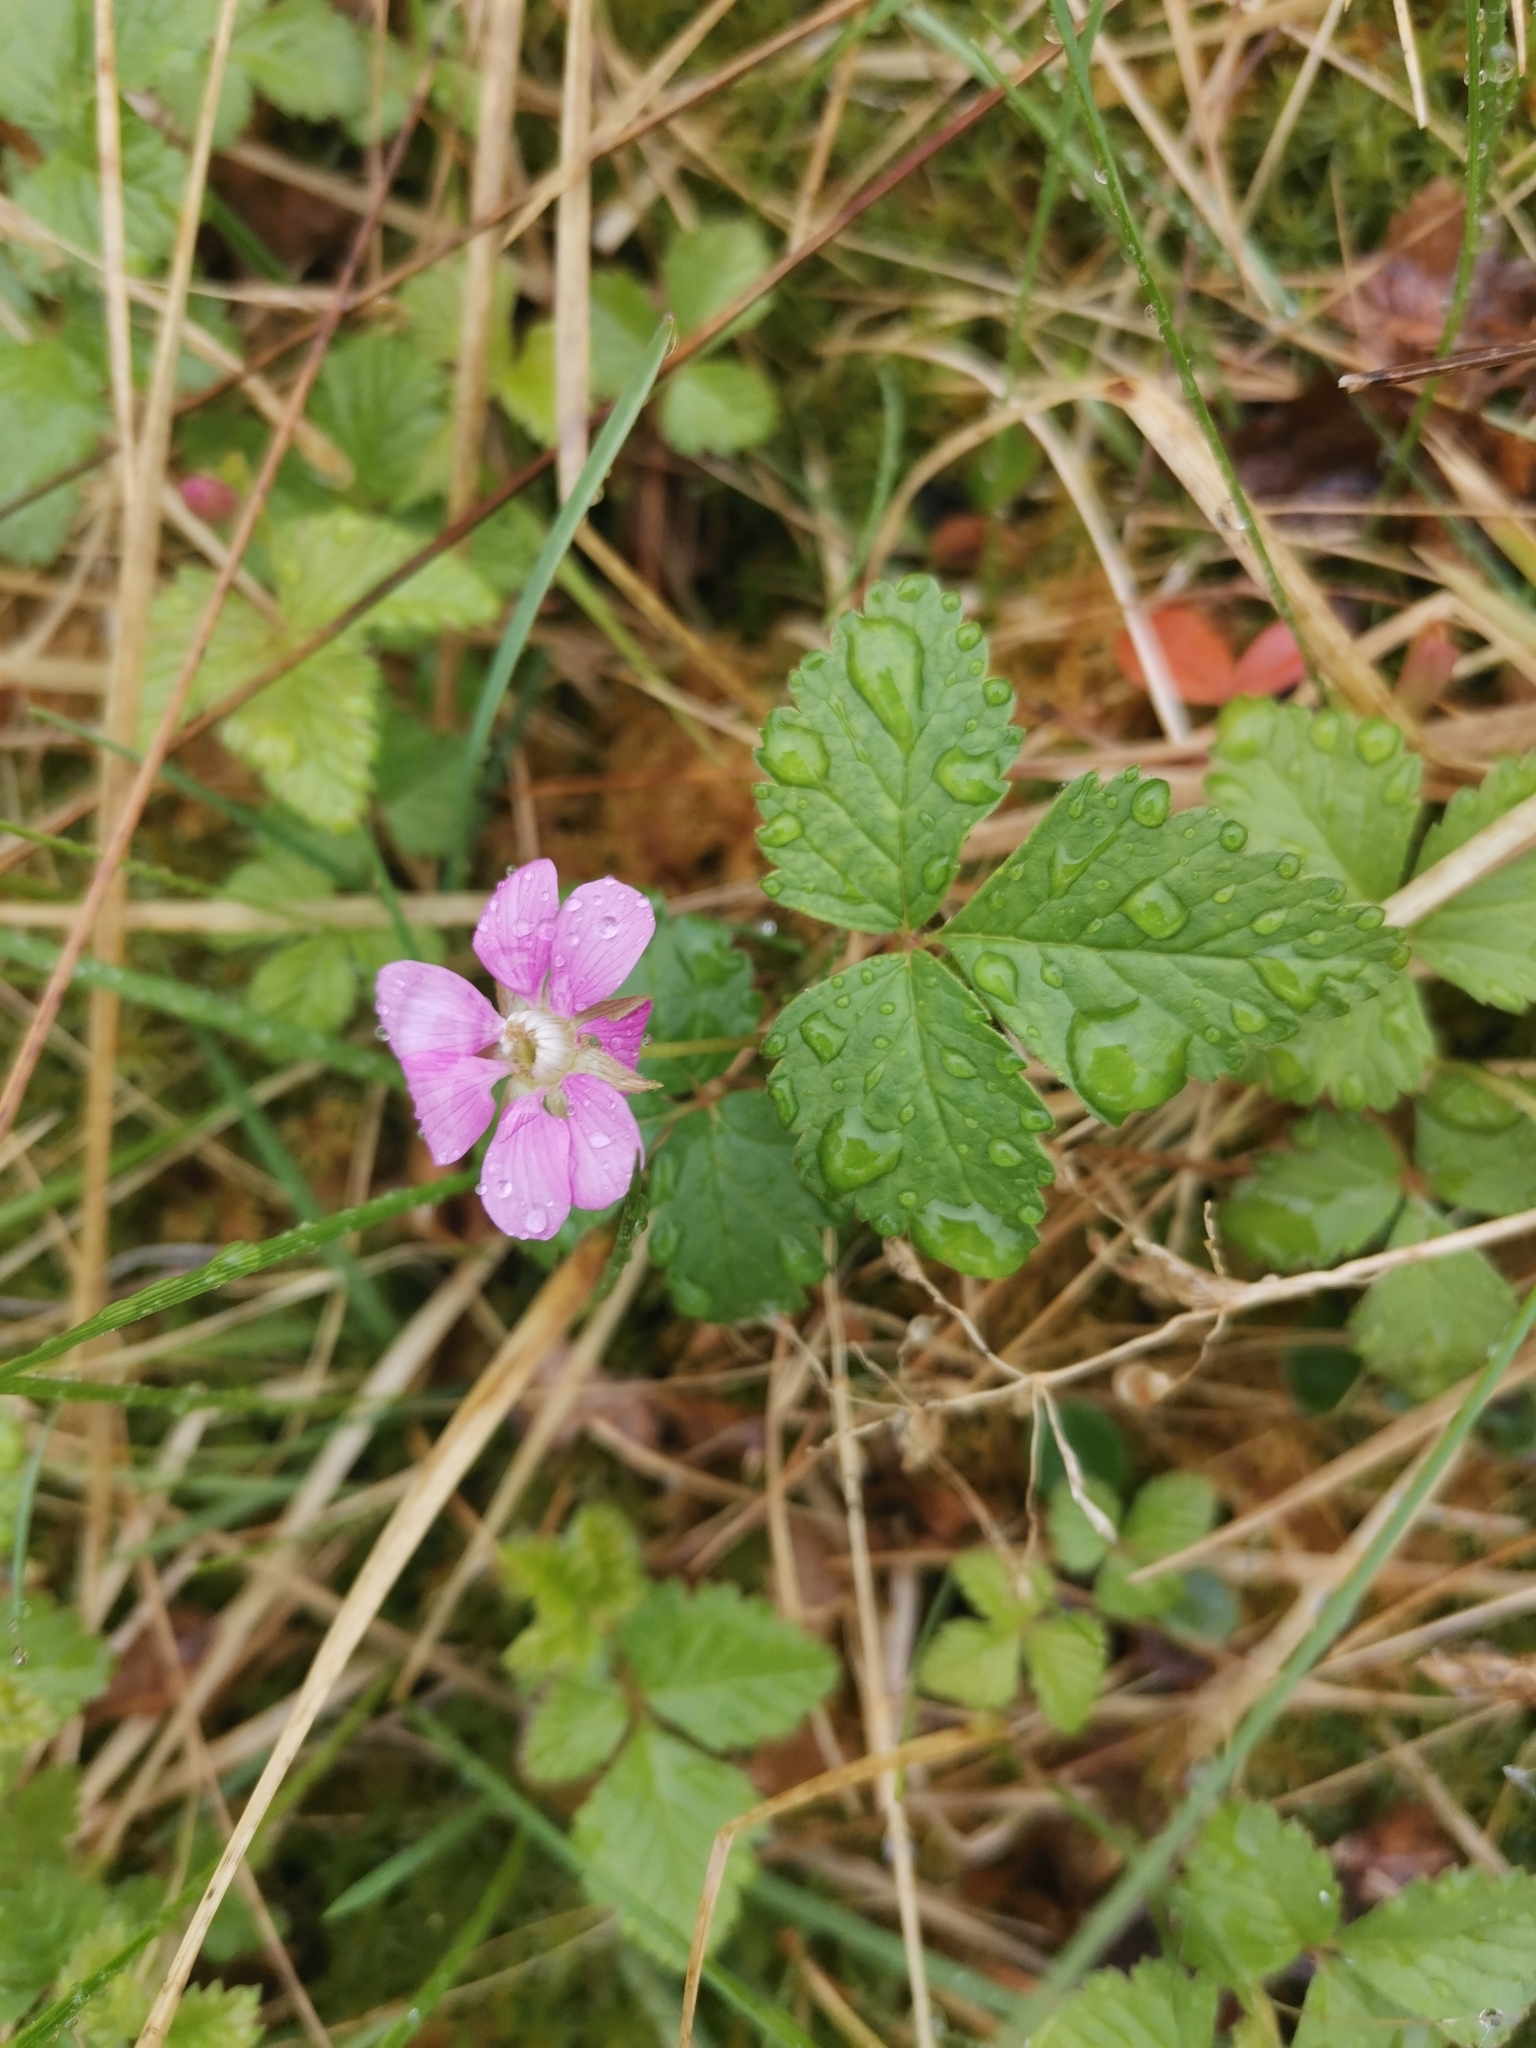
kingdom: Plantae
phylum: Tracheophyta
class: Magnoliopsida
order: Rosales
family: Rosaceae
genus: Rubus
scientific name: Rubus arcticus
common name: Arctic bramble
